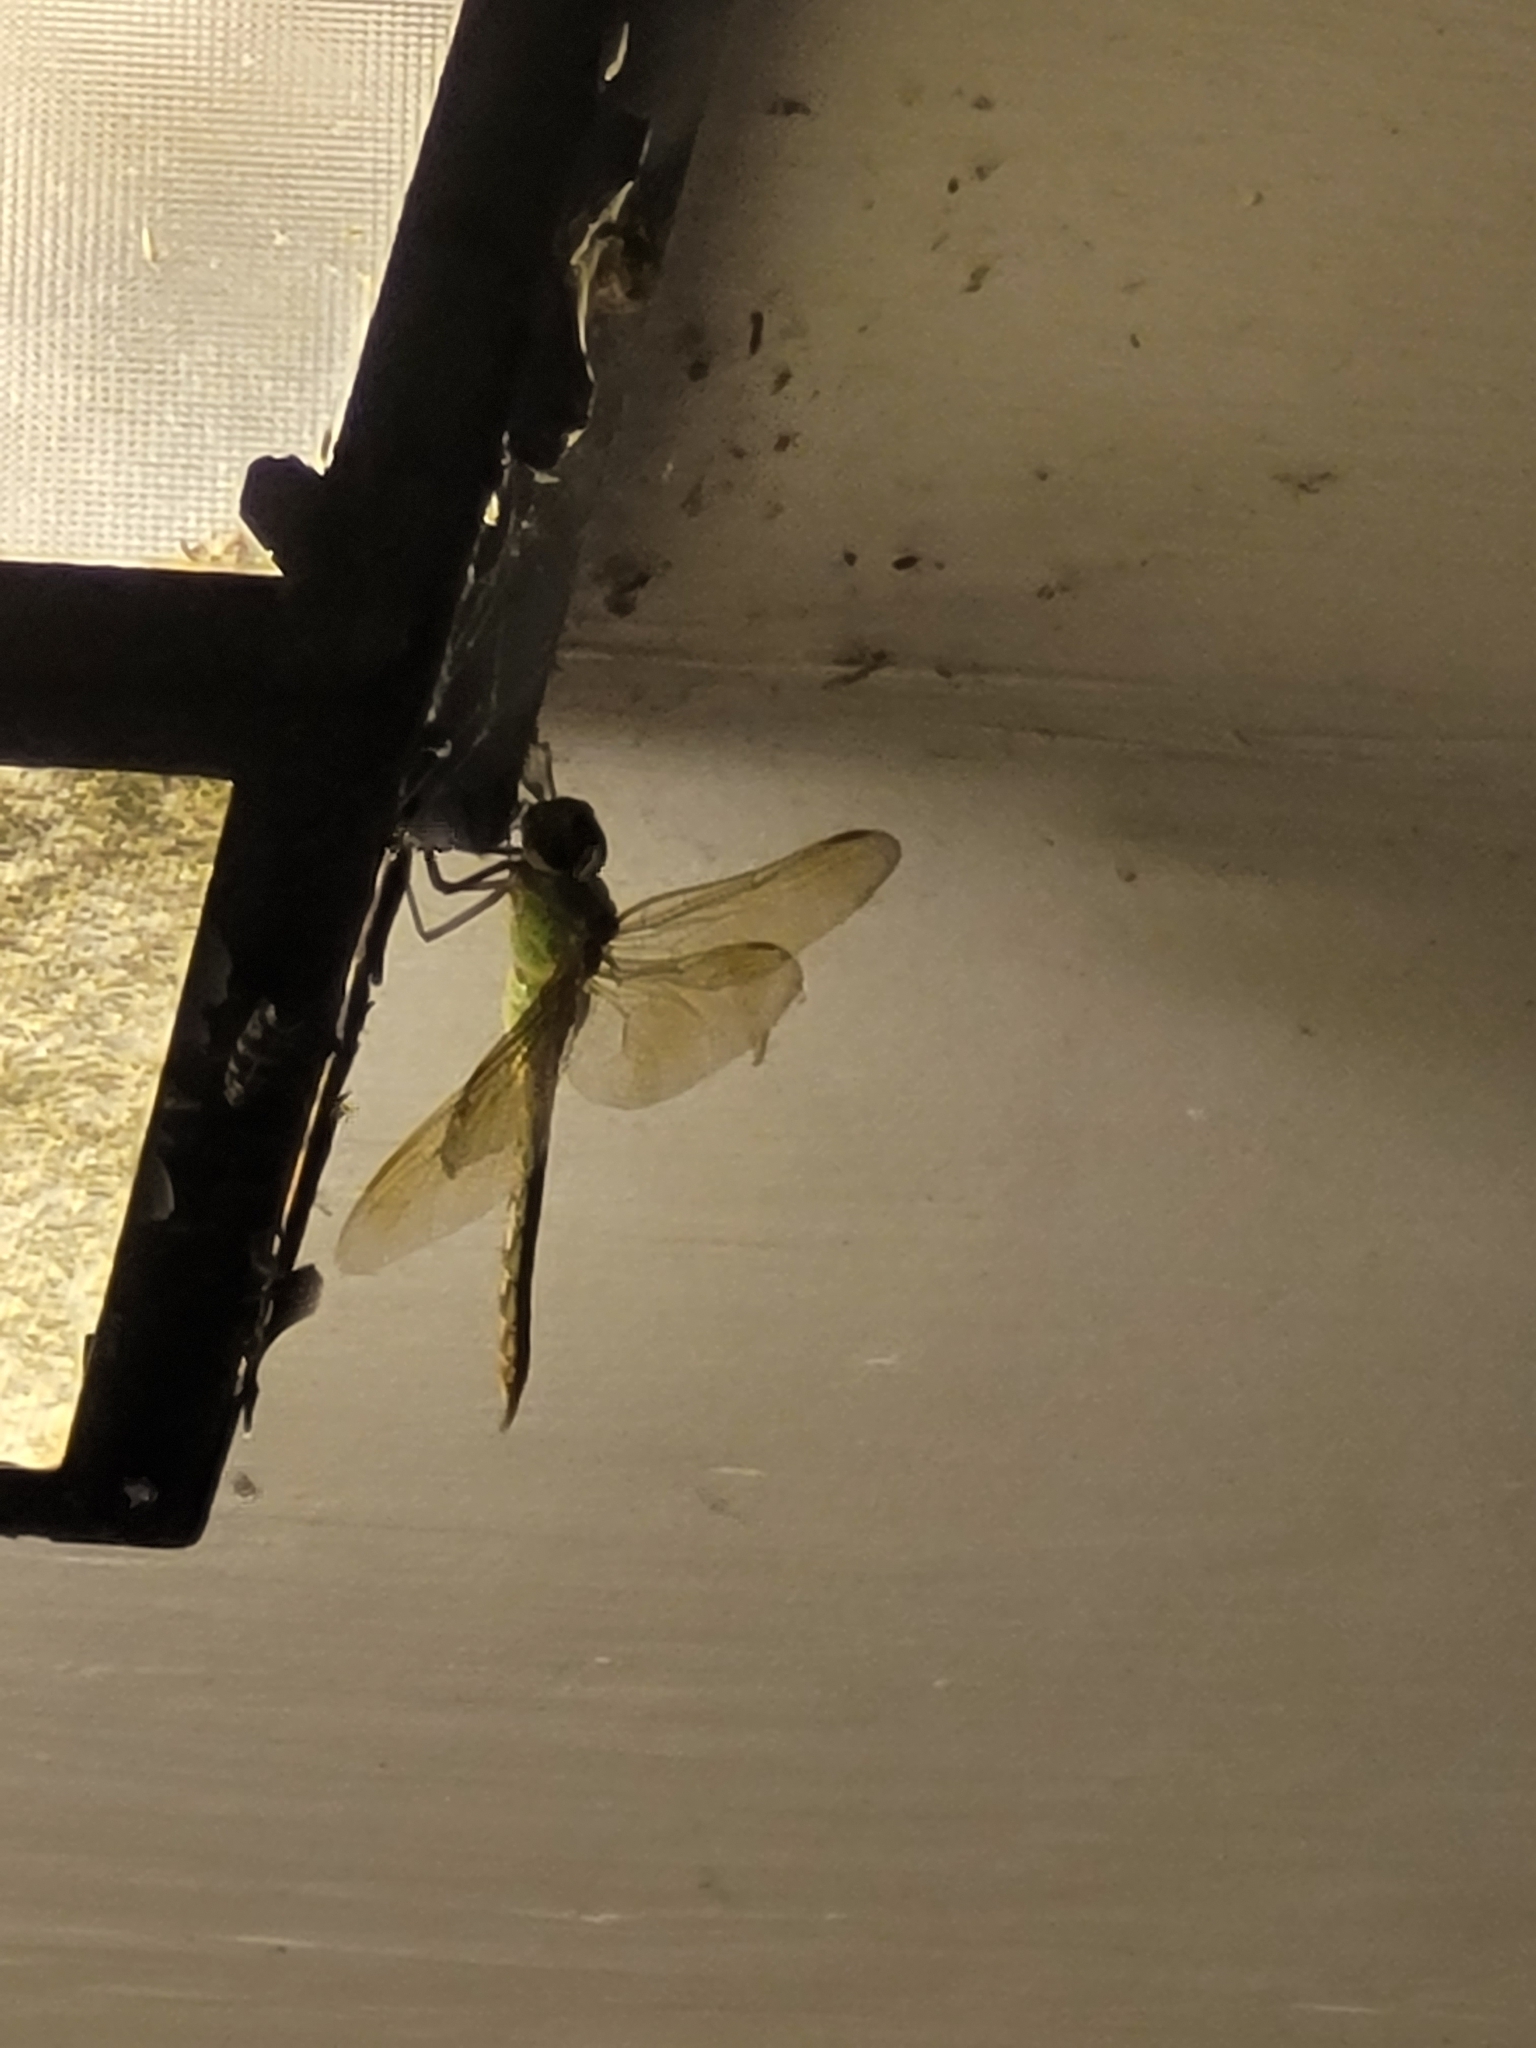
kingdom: Animalia
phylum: Arthropoda
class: Insecta
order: Odonata
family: Aeshnidae
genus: Anax
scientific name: Anax junius
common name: Common green darner
